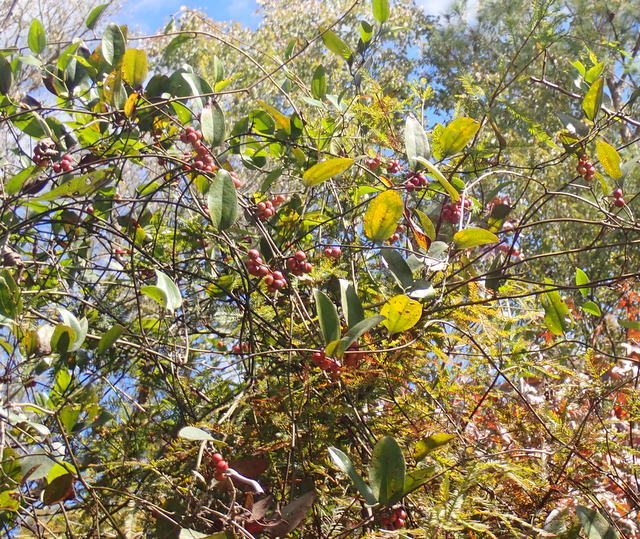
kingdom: Plantae
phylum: Tracheophyta
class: Liliopsida
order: Liliales
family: Smilacaceae
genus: Smilax
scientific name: Smilax walteri
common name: Coral greenbrier
